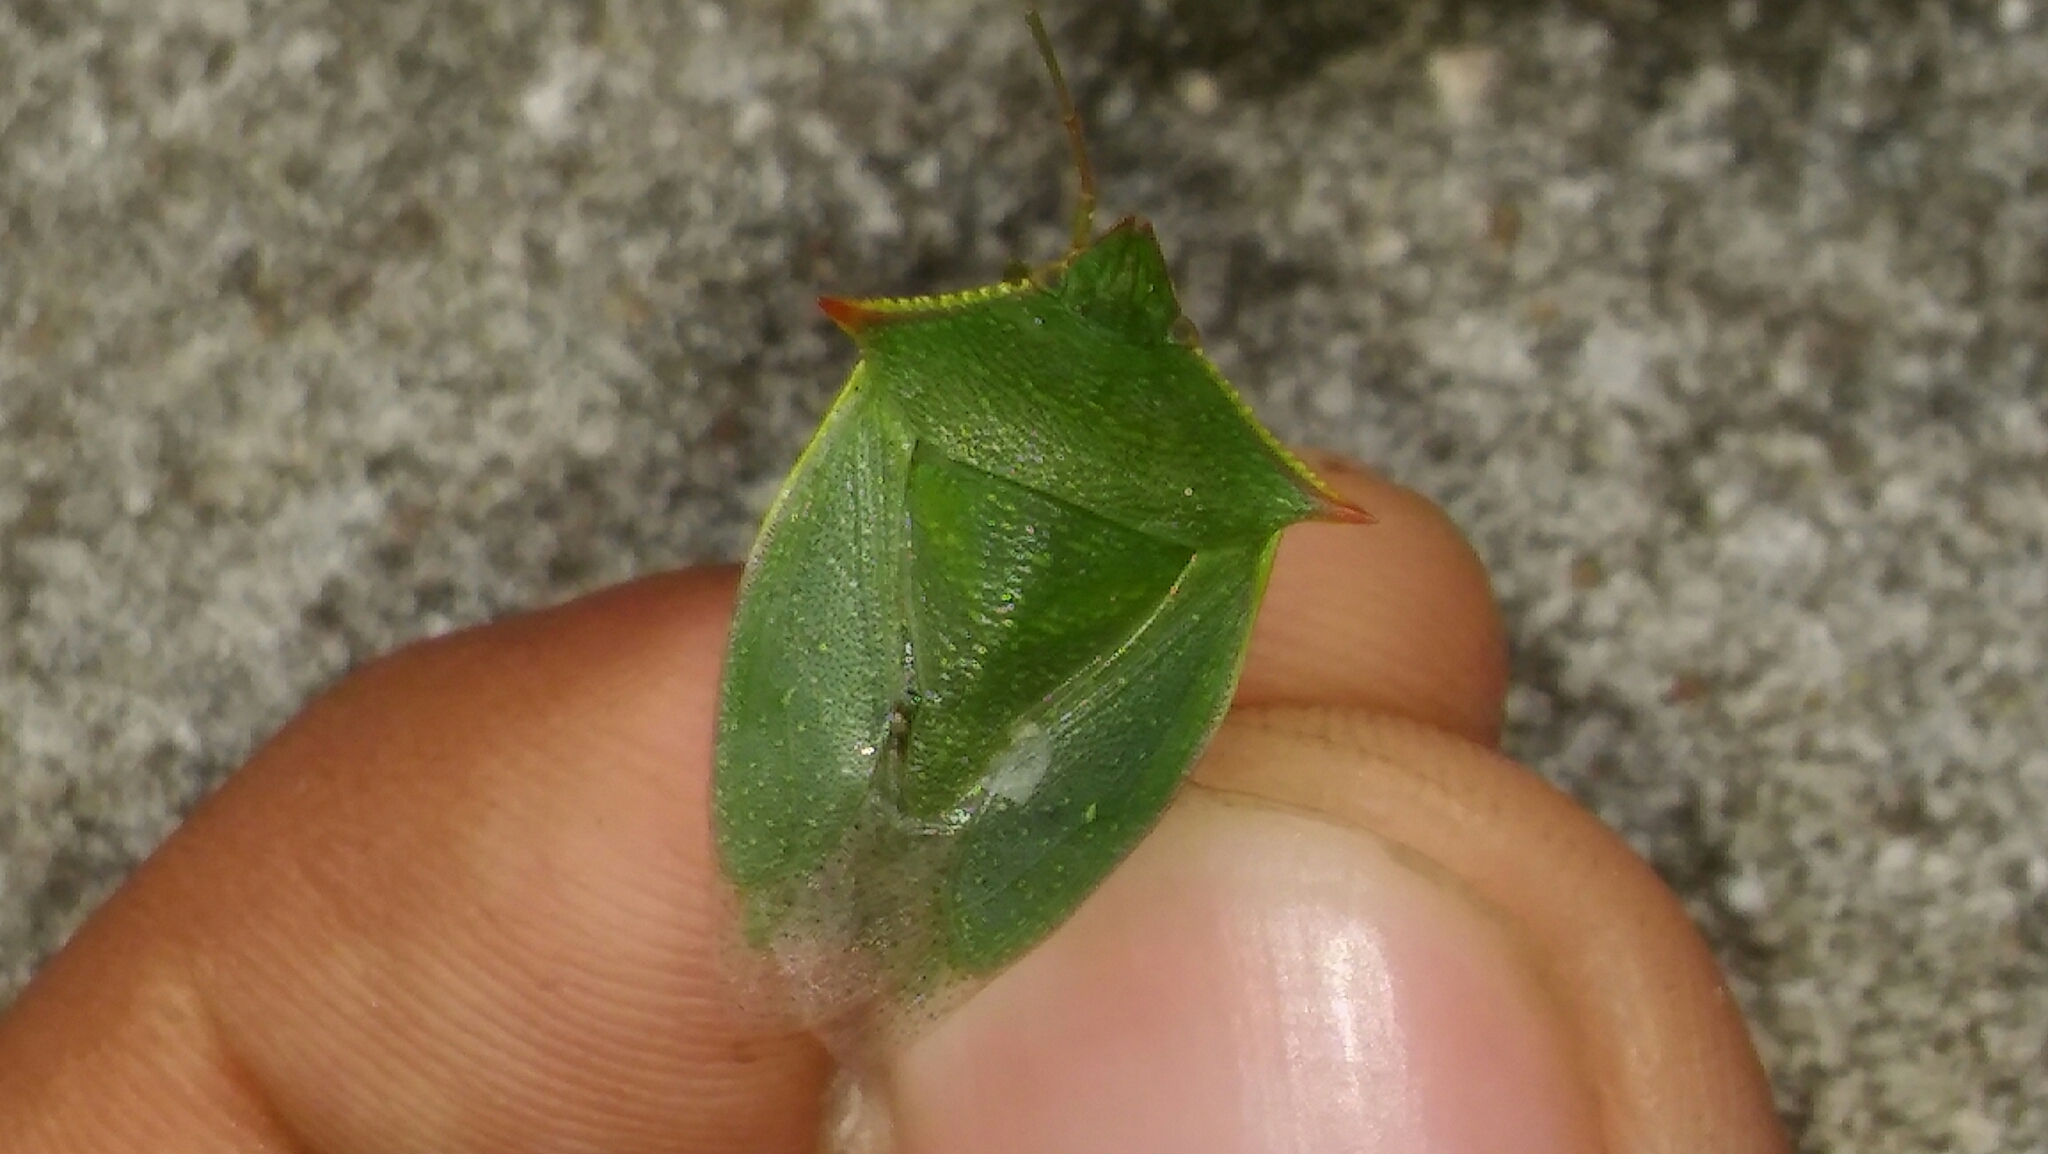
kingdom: Animalia
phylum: Arthropoda
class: Insecta
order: Hemiptera
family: Pentatomidae
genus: Loxa
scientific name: Loxa deducta
